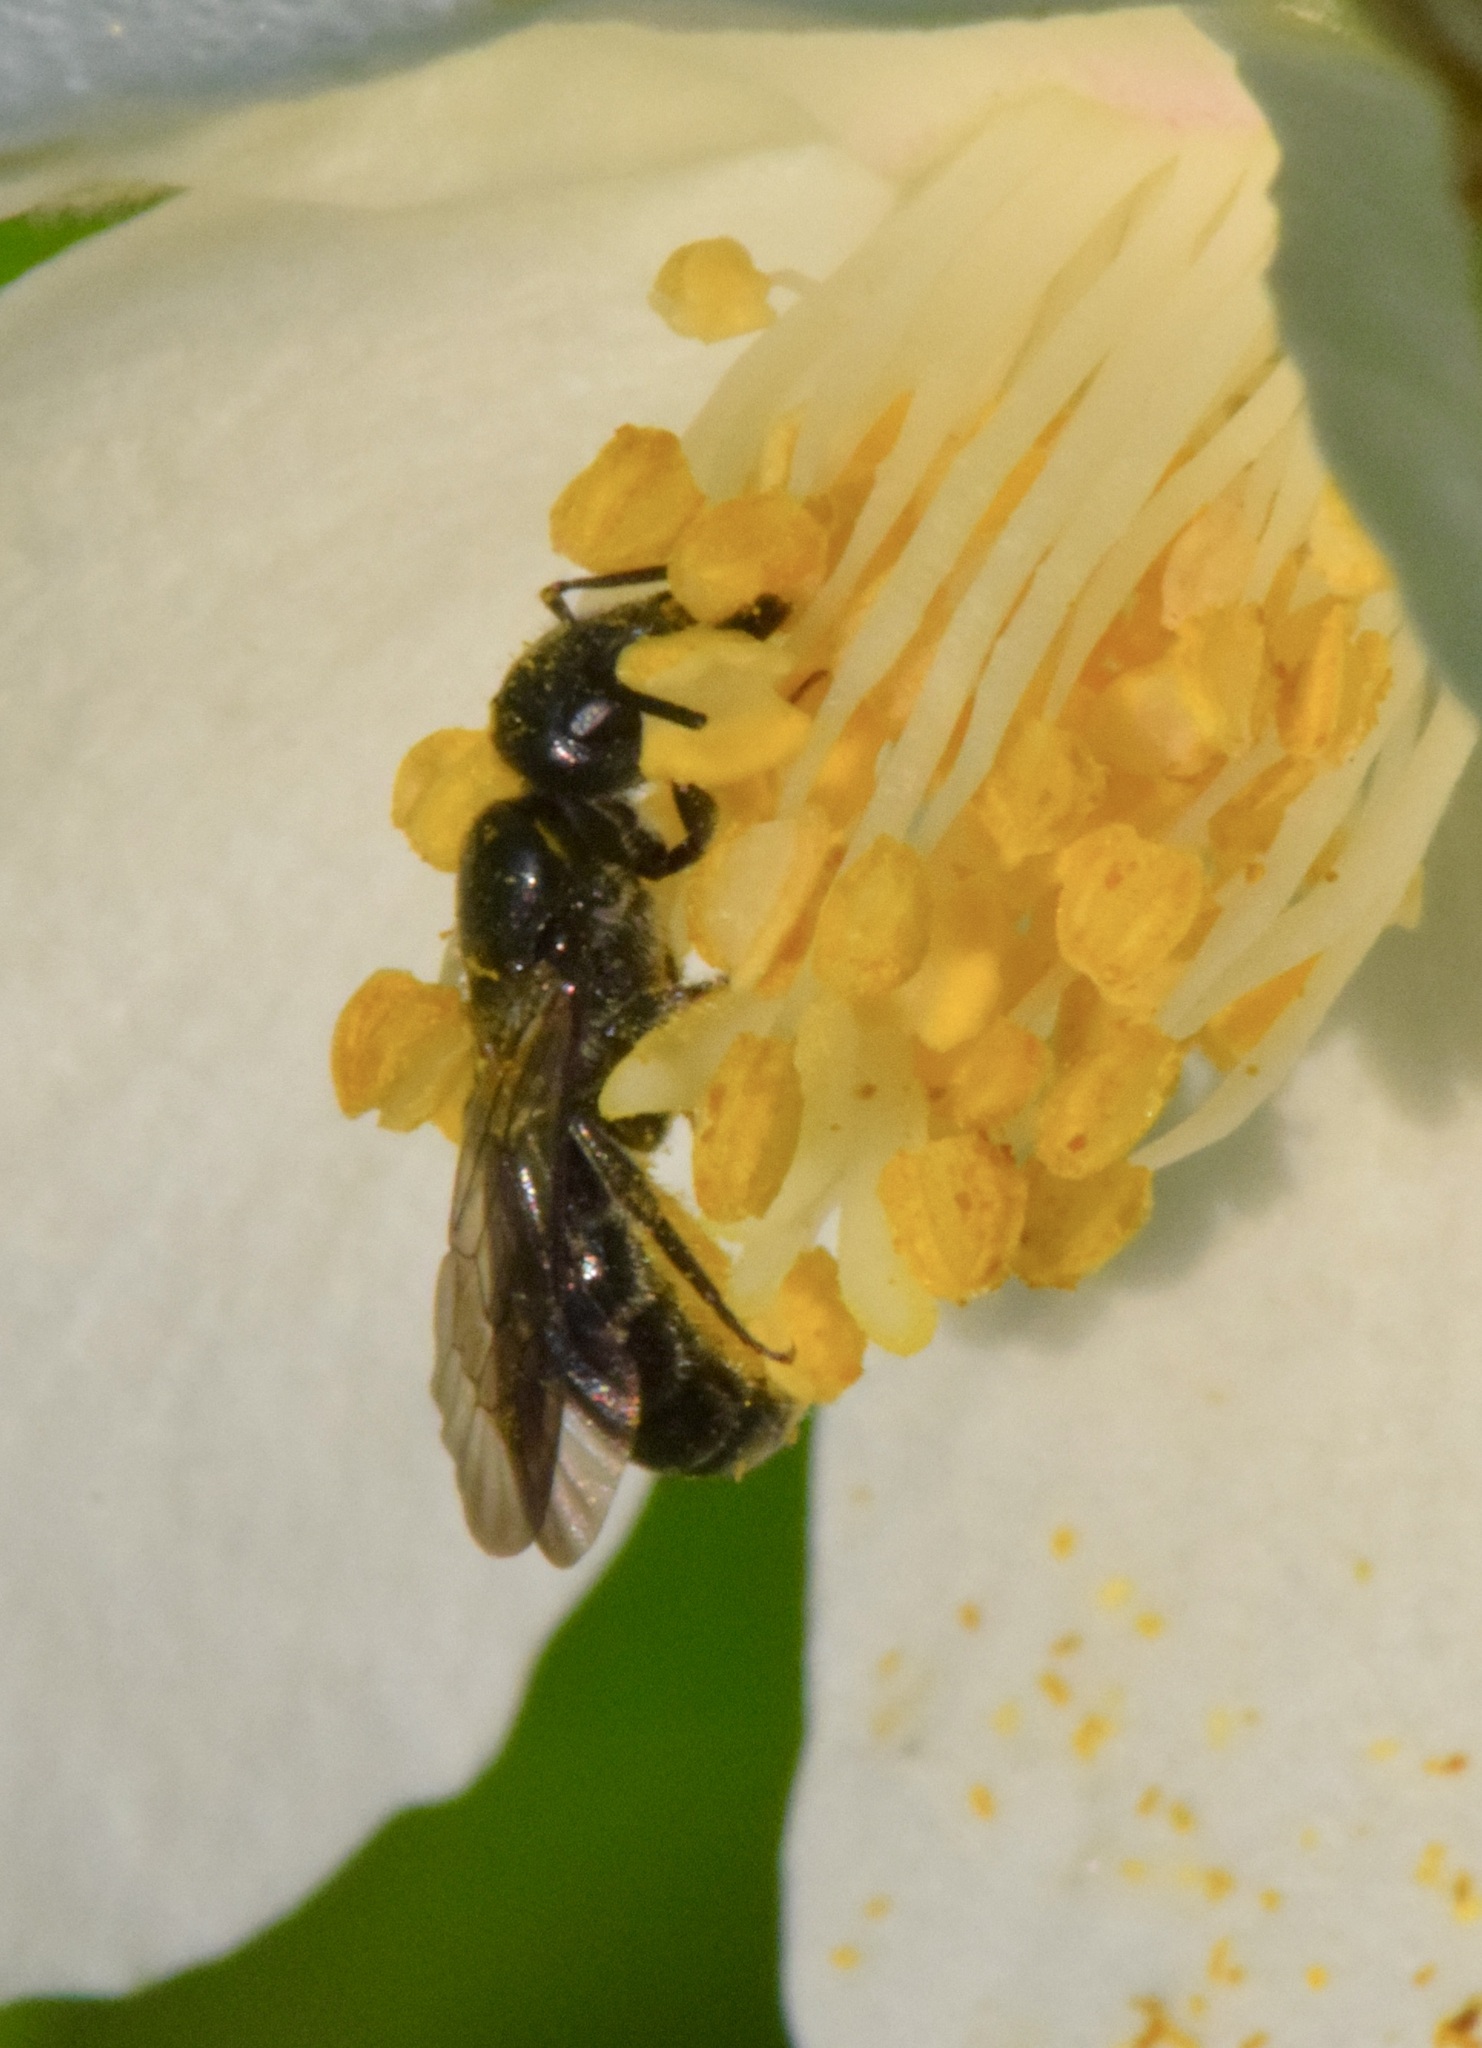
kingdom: Animalia
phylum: Arthropoda
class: Insecta
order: Hymenoptera
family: Megachilidae
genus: Chelostoma
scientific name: Chelostoma philadelphi
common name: Mock-orange scissor bee
